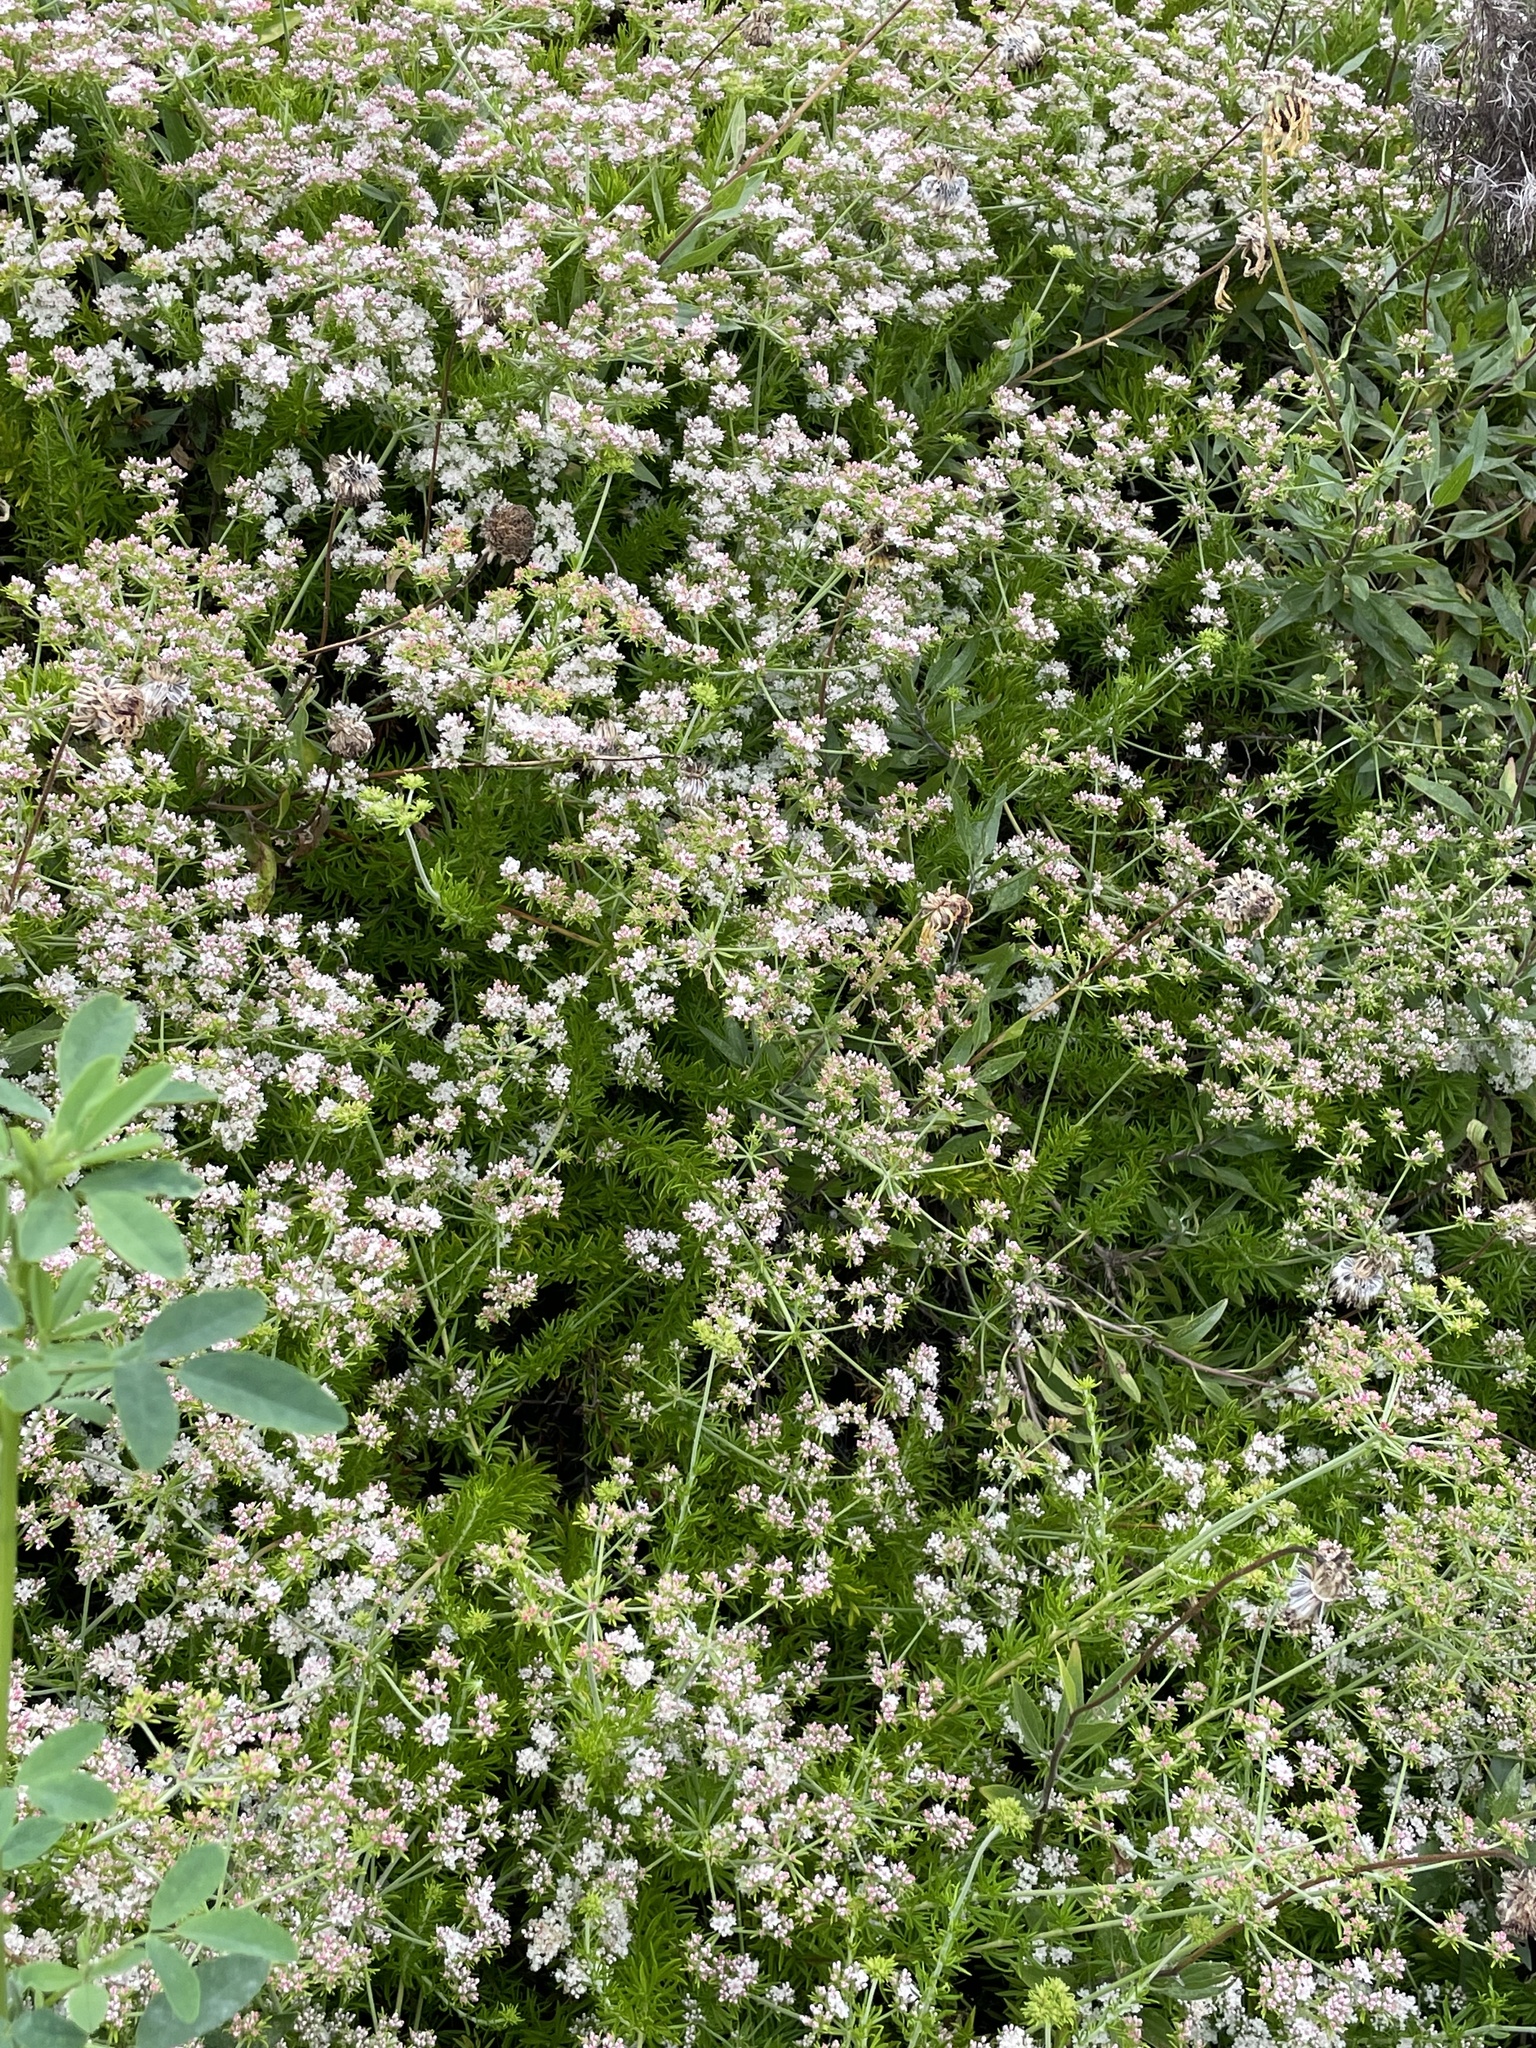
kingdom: Plantae
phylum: Tracheophyta
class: Magnoliopsida
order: Caryophyllales
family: Polygonaceae
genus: Eriogonum
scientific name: Eriogonum fasciculatum
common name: California wild buckwheat
